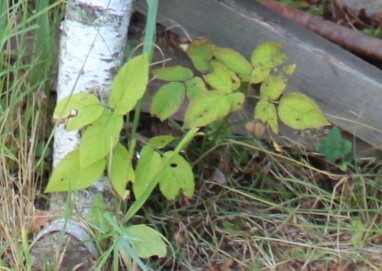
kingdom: Plantae
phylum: Tracheophyta
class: Magnoliopsida
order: Apiales
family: Apiaceae
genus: Aegopodium
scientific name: Aegopodium podagraria
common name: Ground-elder
